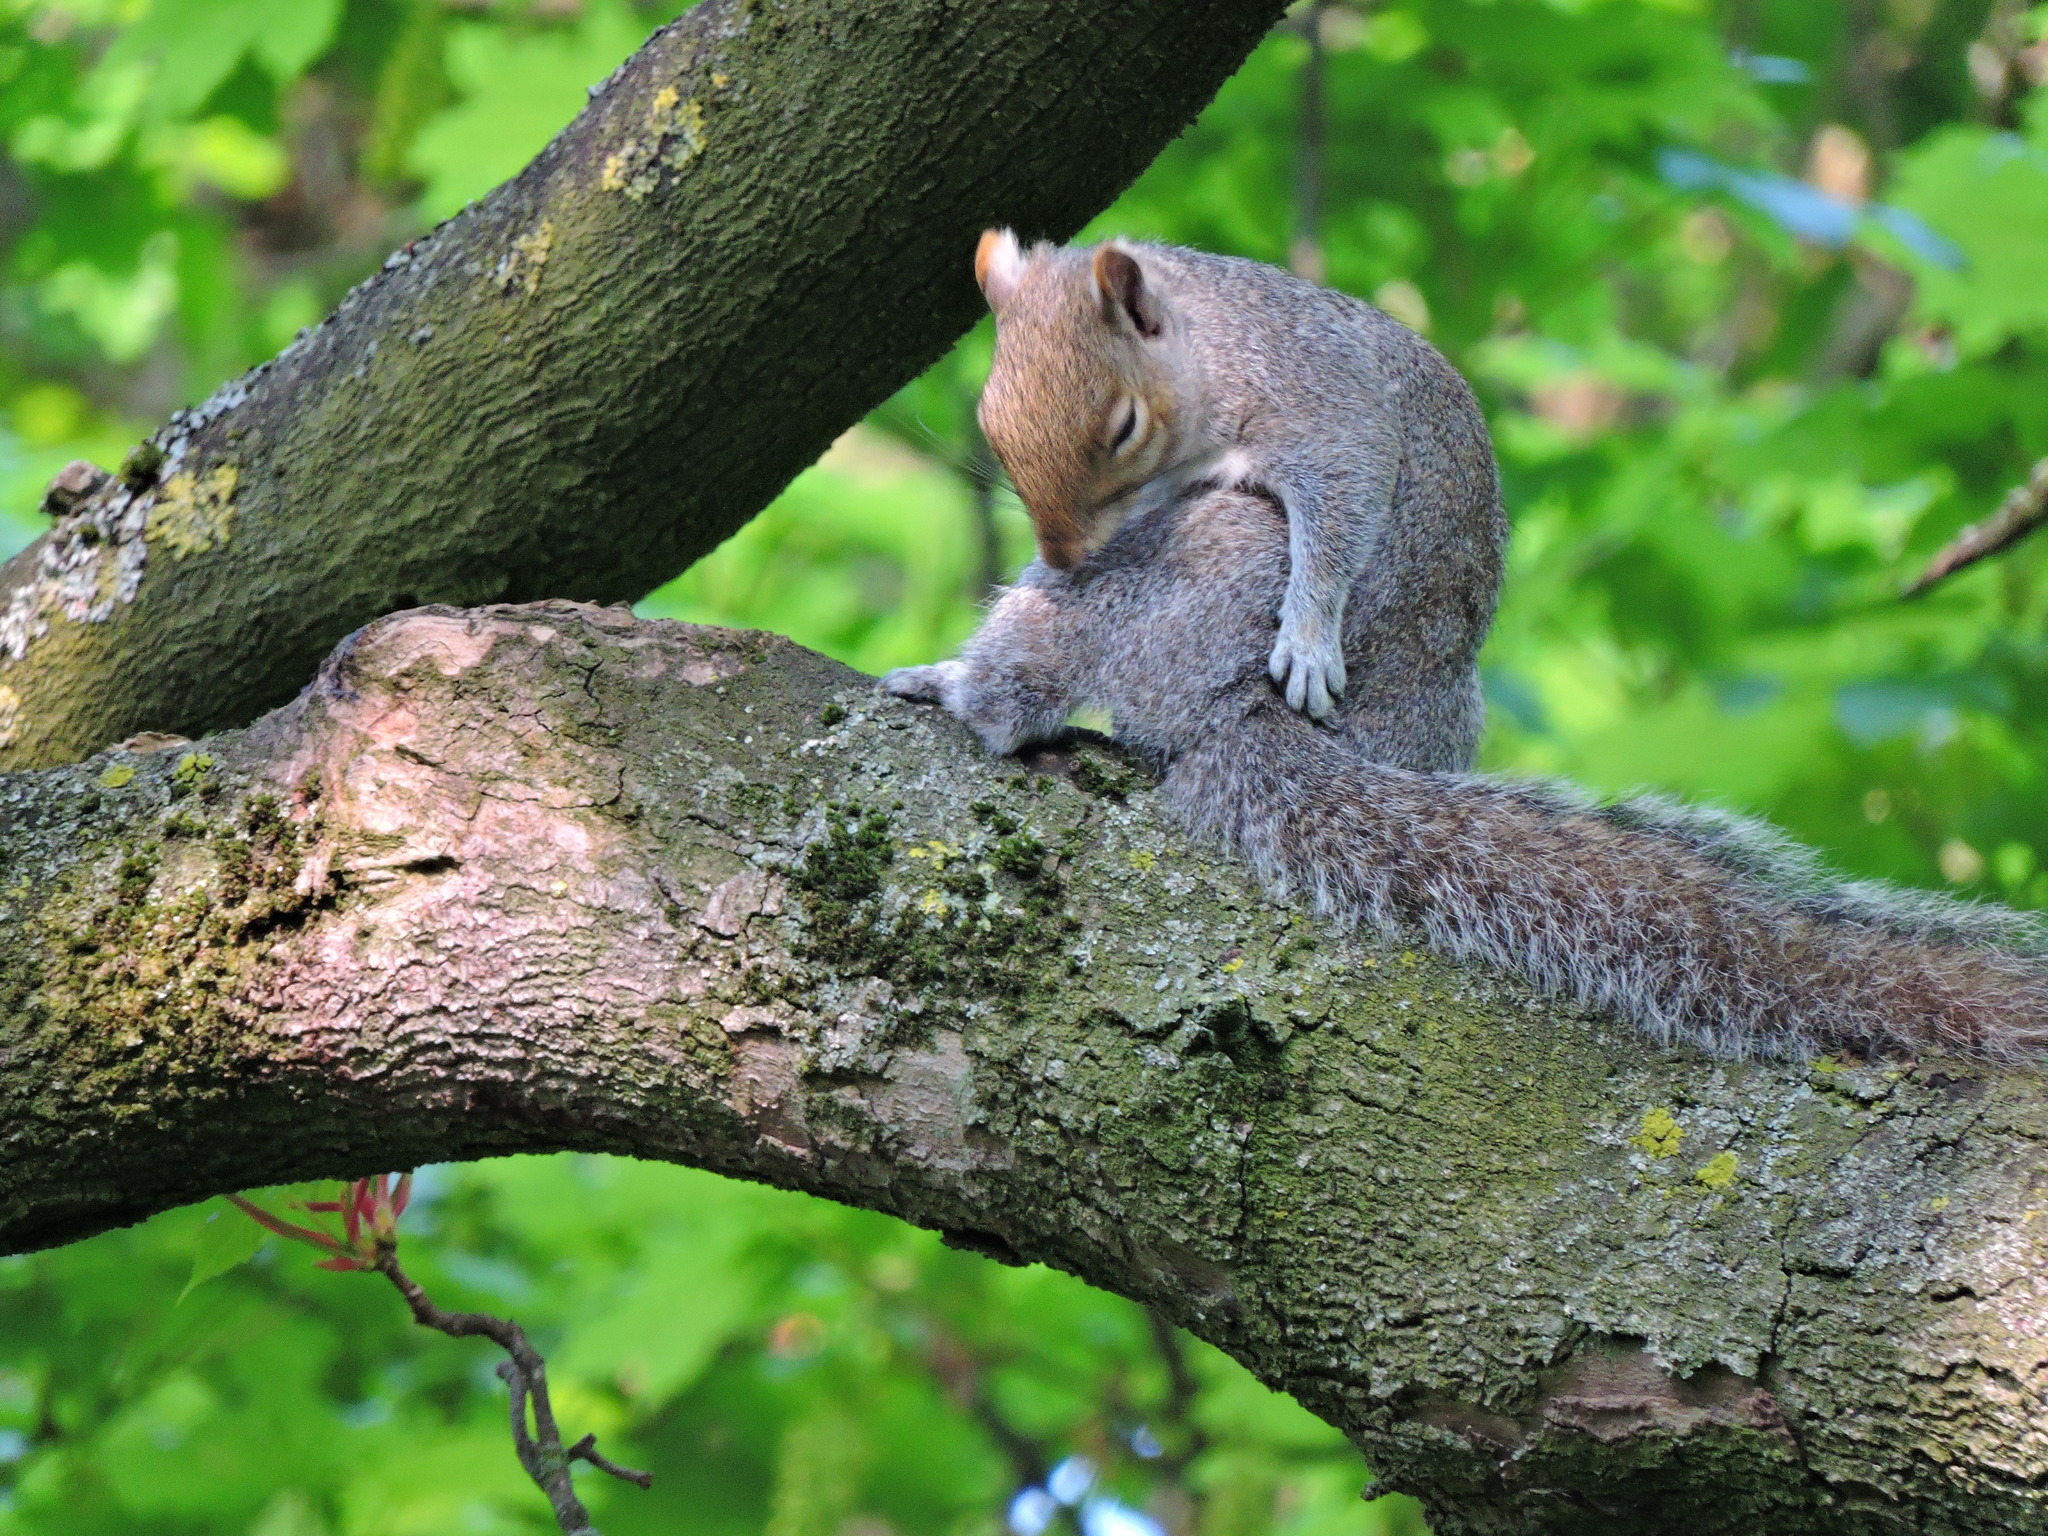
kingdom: Animalia
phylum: Chordata
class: Mammalia
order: Rodentia
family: Sciuridae
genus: Sciurus
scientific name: Sciurus carolinensis
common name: Eastern gray squirrel
